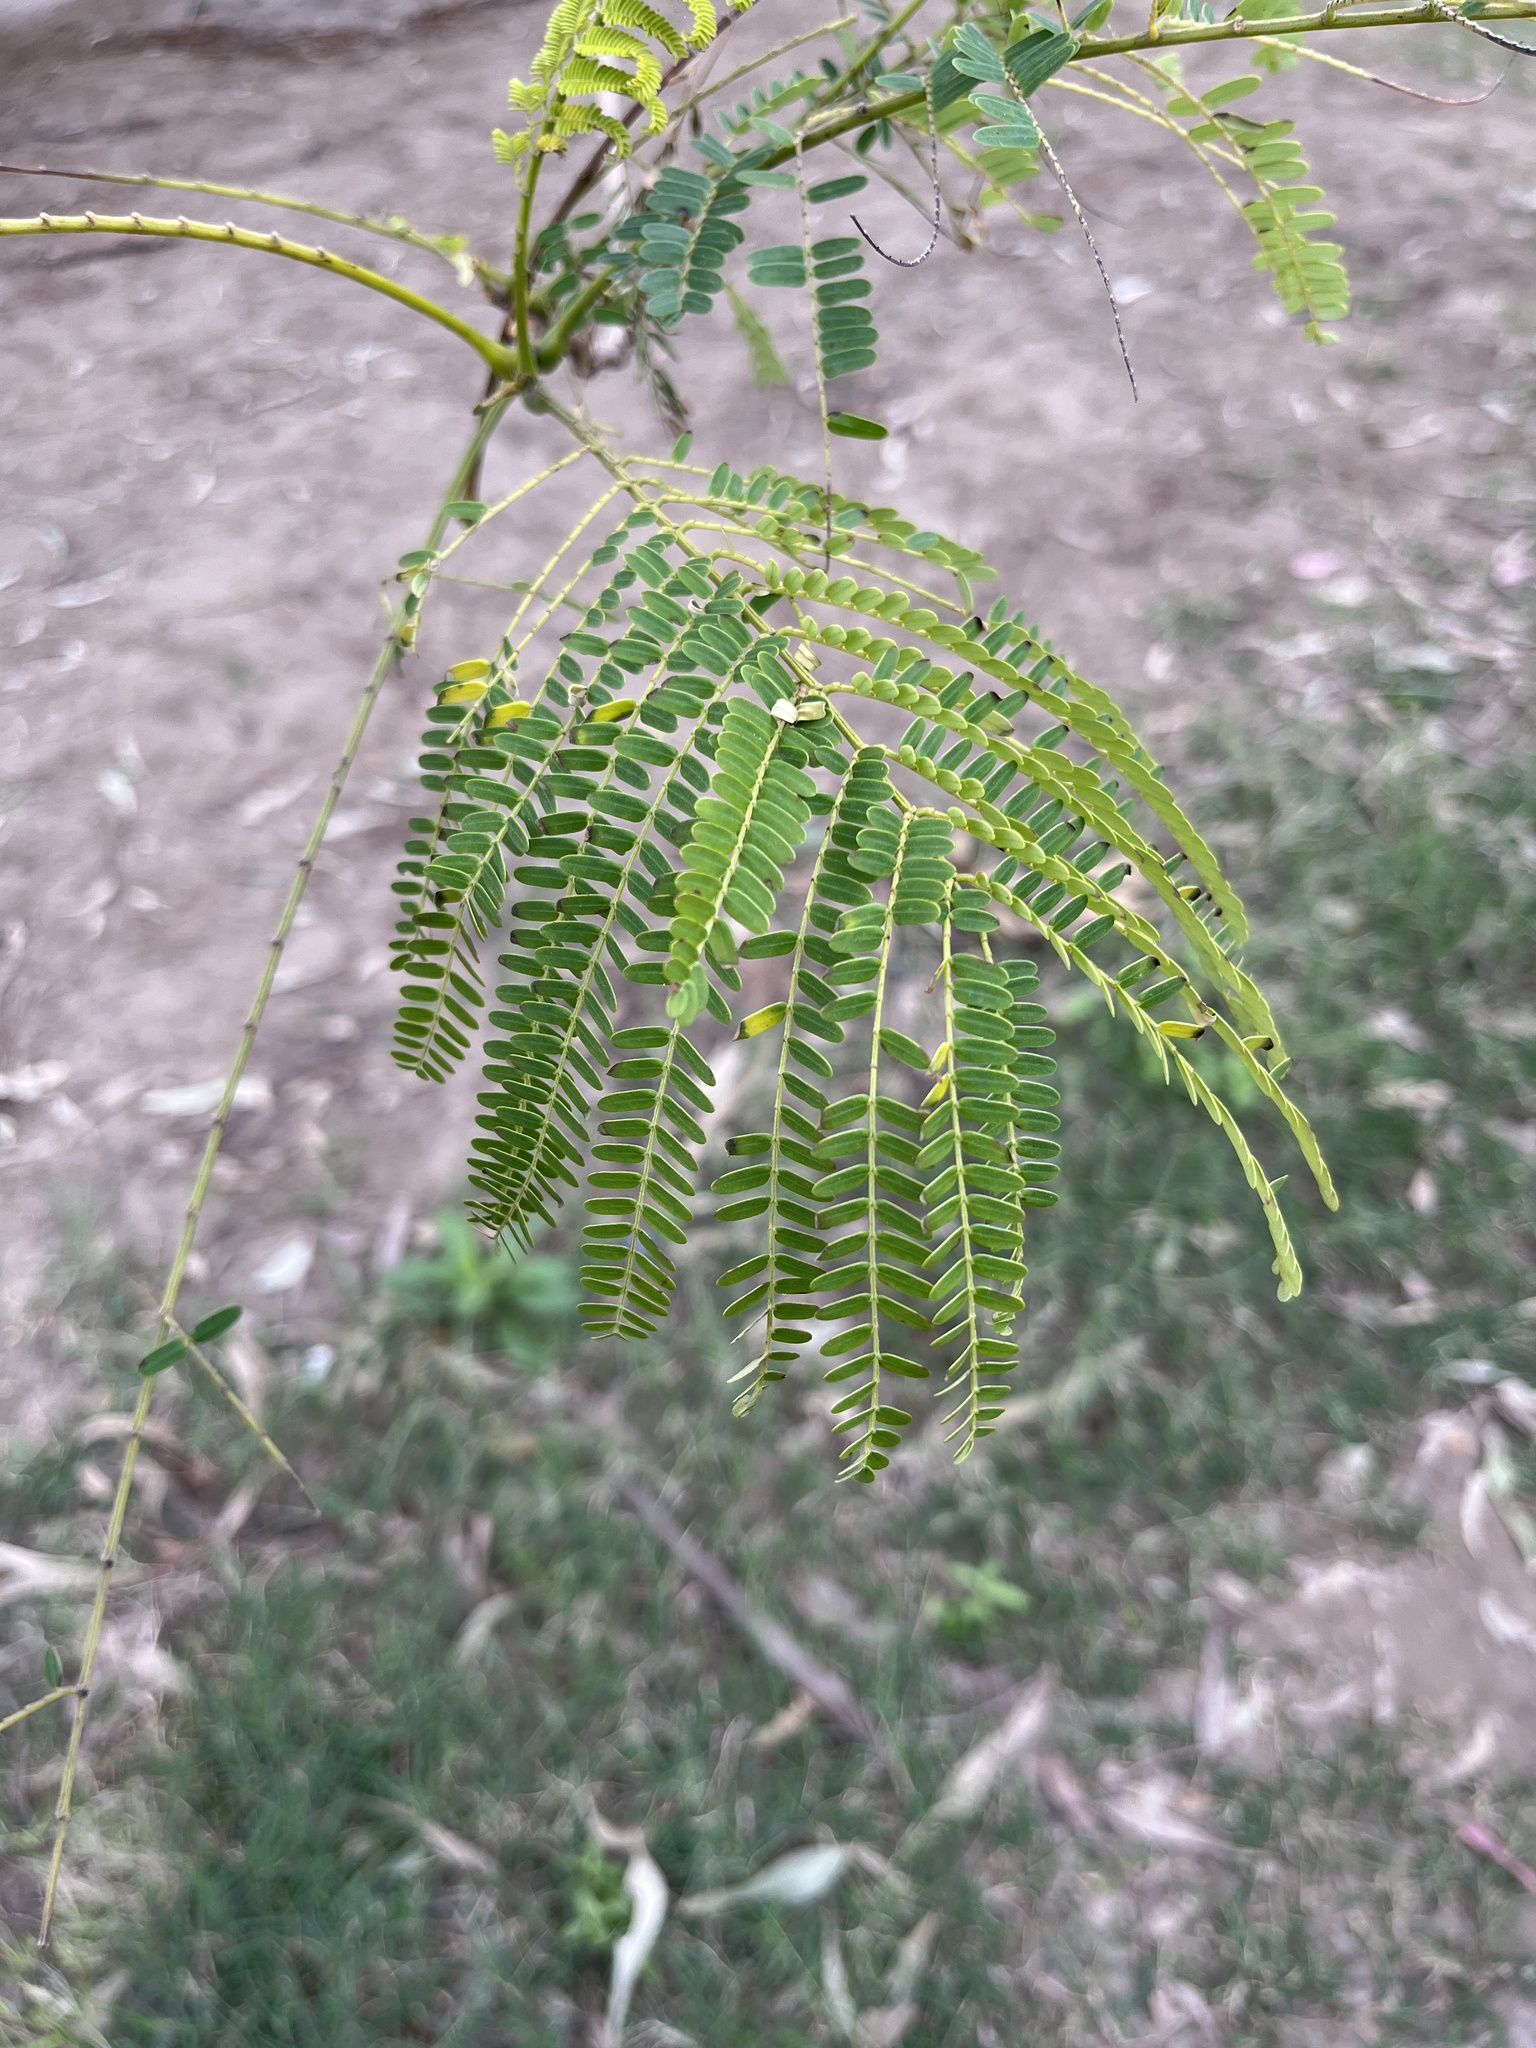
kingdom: Plantae
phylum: Tracheophyta
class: Magnoliopsida
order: Fabales
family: Fabaceae
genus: Leucaena
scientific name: Leucaena leucocephala
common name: White leadtree
